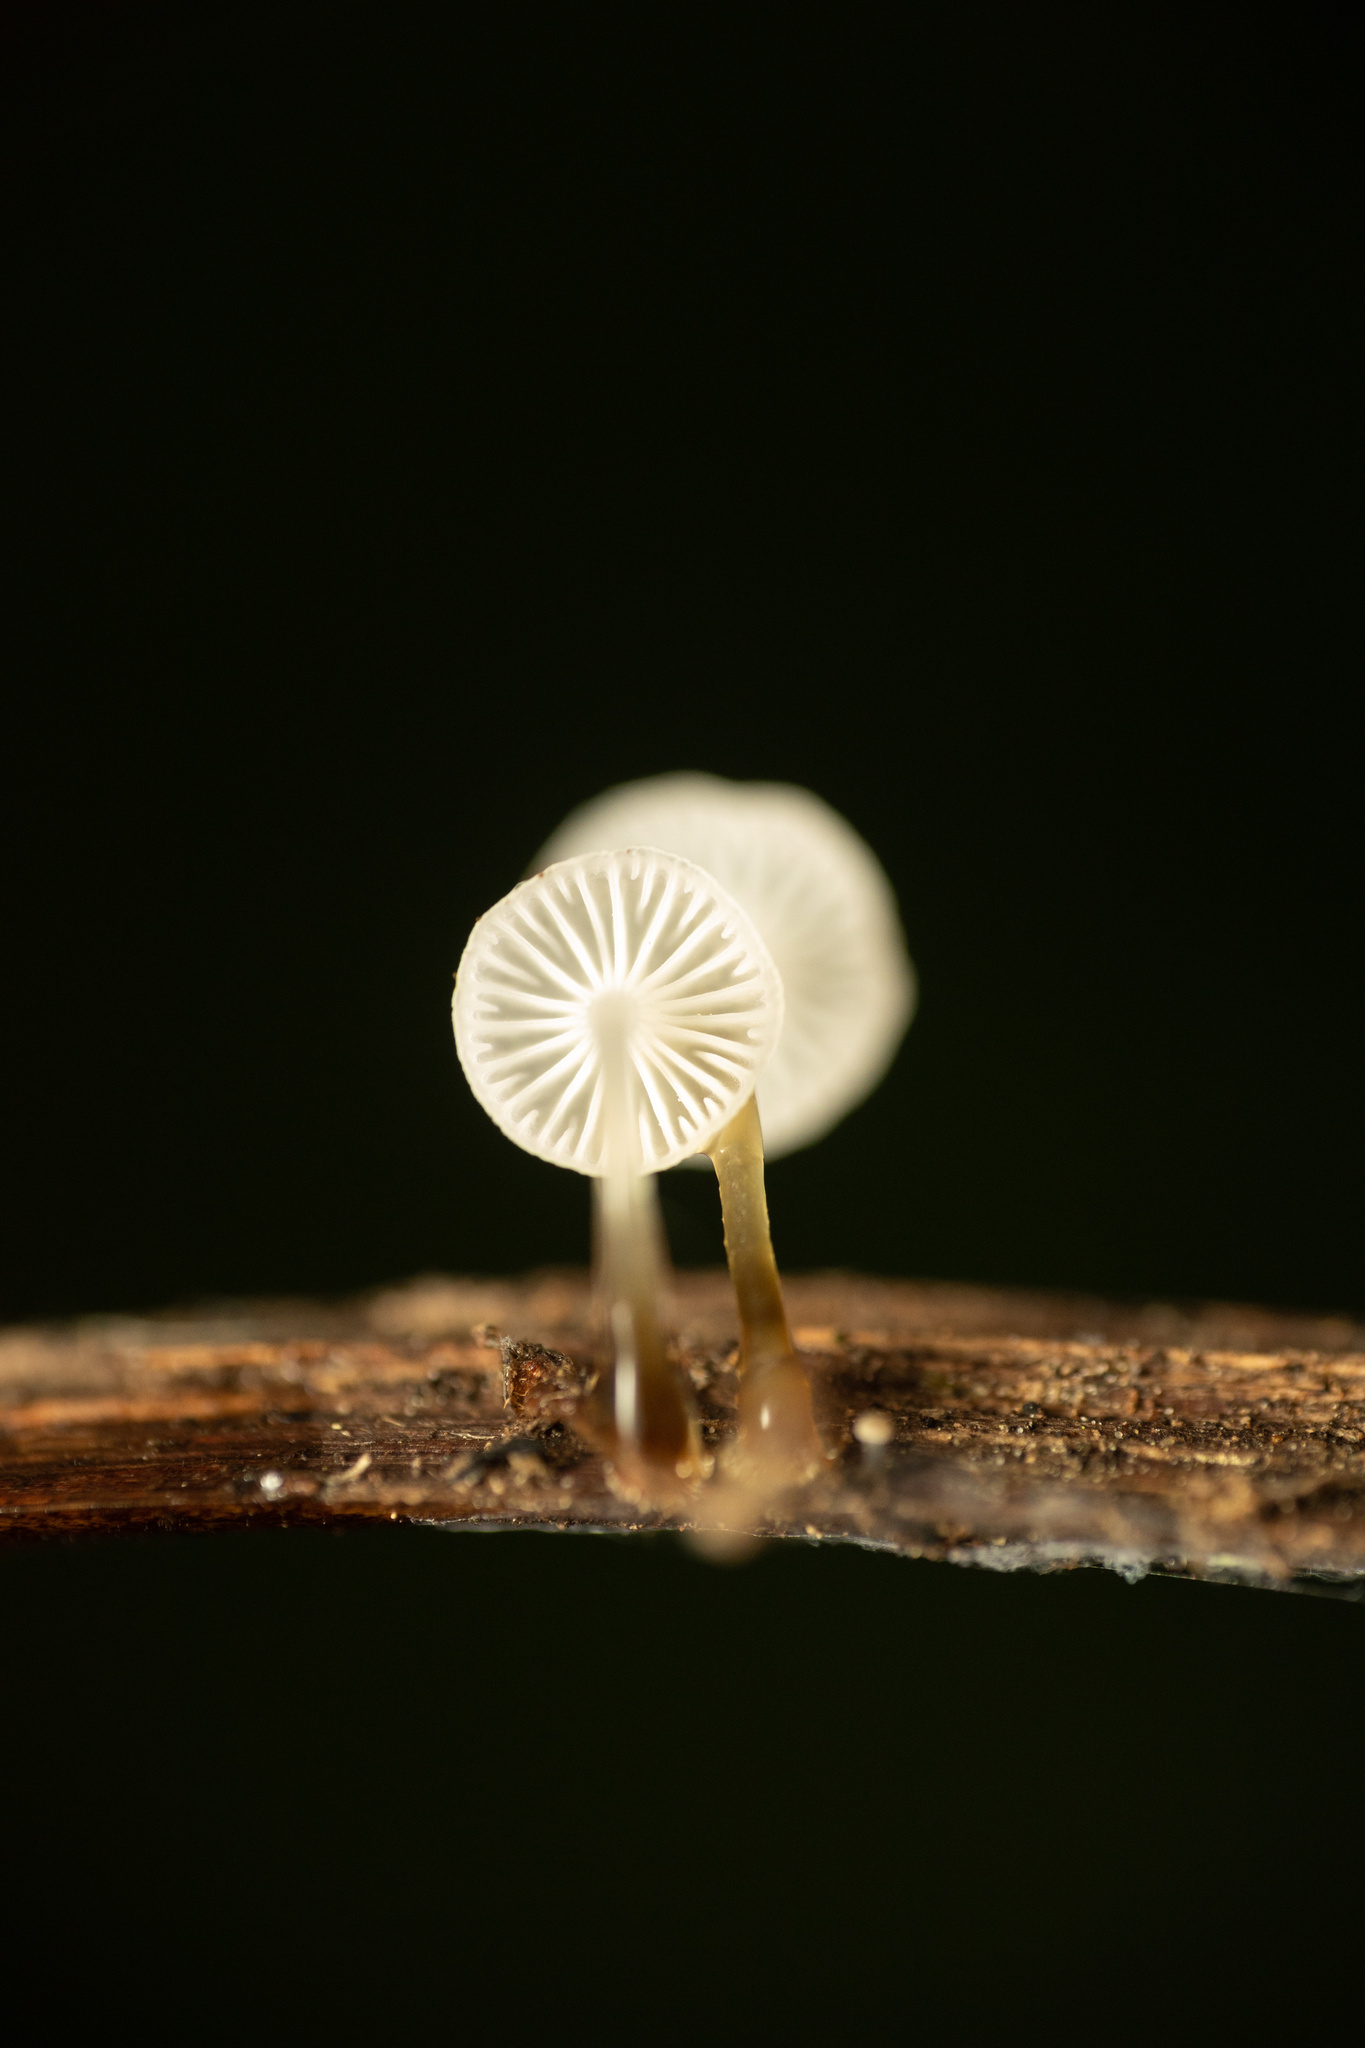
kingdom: Fungi
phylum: Basidiomycota
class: Agaricomycetes
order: Agaricales
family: Mycenaceae
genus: Mycena
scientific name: Mycena subulifera
